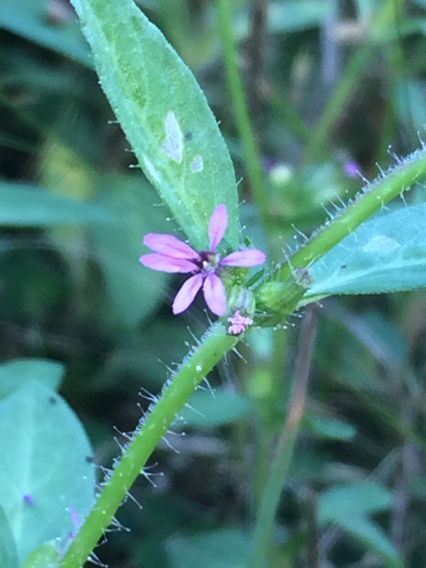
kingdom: Plantae
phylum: Tracheophyta
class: Magnoliopsida
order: Myrtales
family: Lythraceae
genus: Cuphea
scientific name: Cuphea carthagenensis
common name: Colombian waxweed
